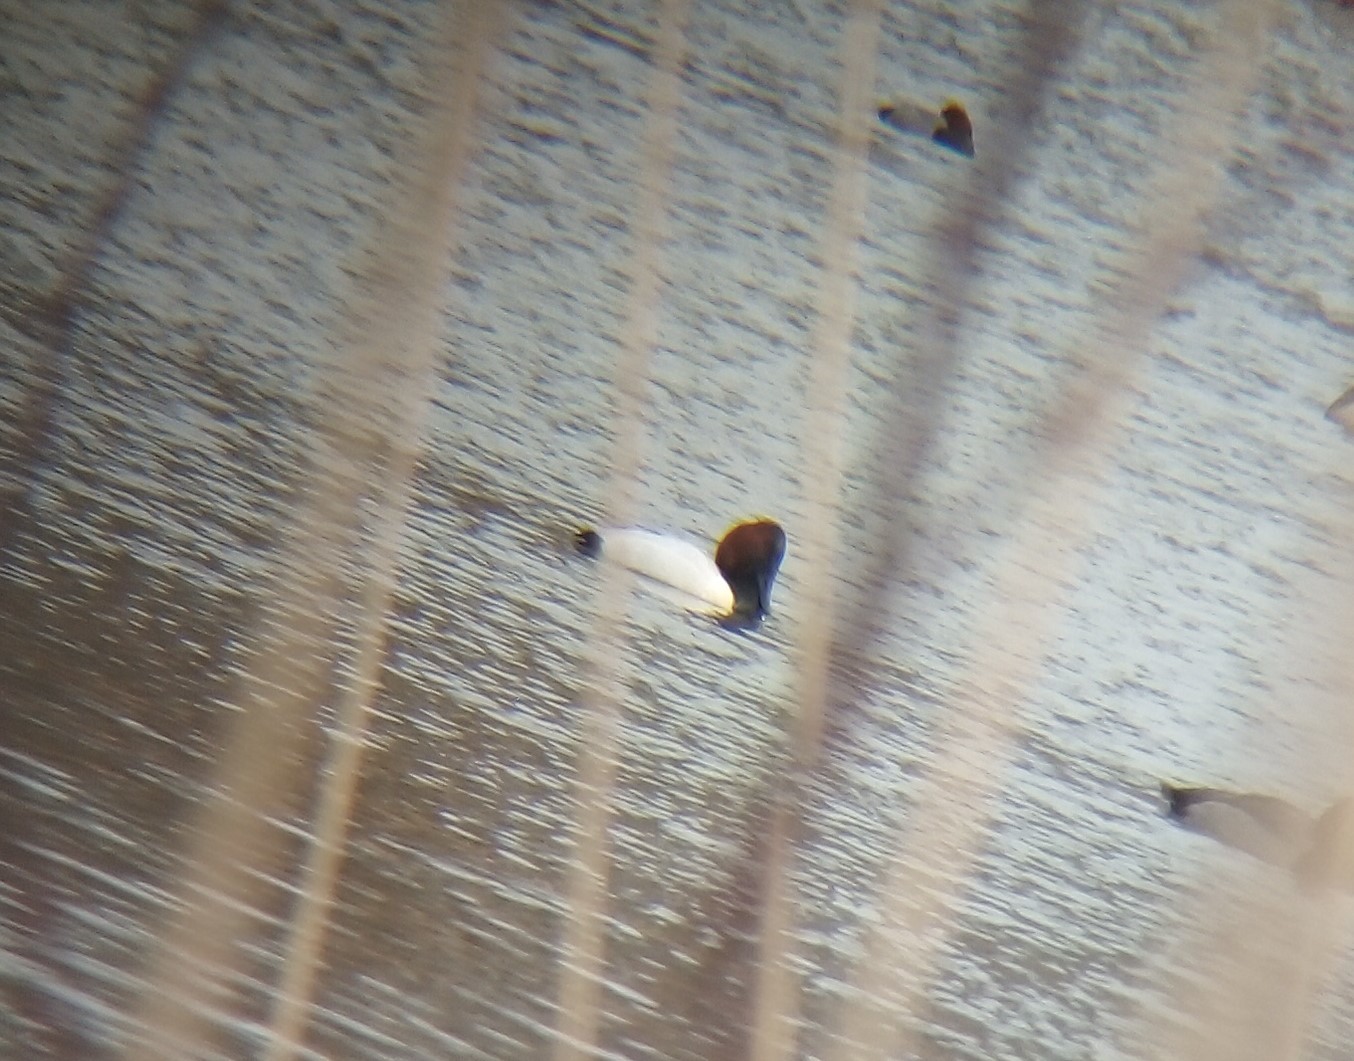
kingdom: Animalia
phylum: Chordata
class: Aves
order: Anseriformes
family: Anatidae
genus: Aythya
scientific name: Aythya valisineria
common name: Canvasback
